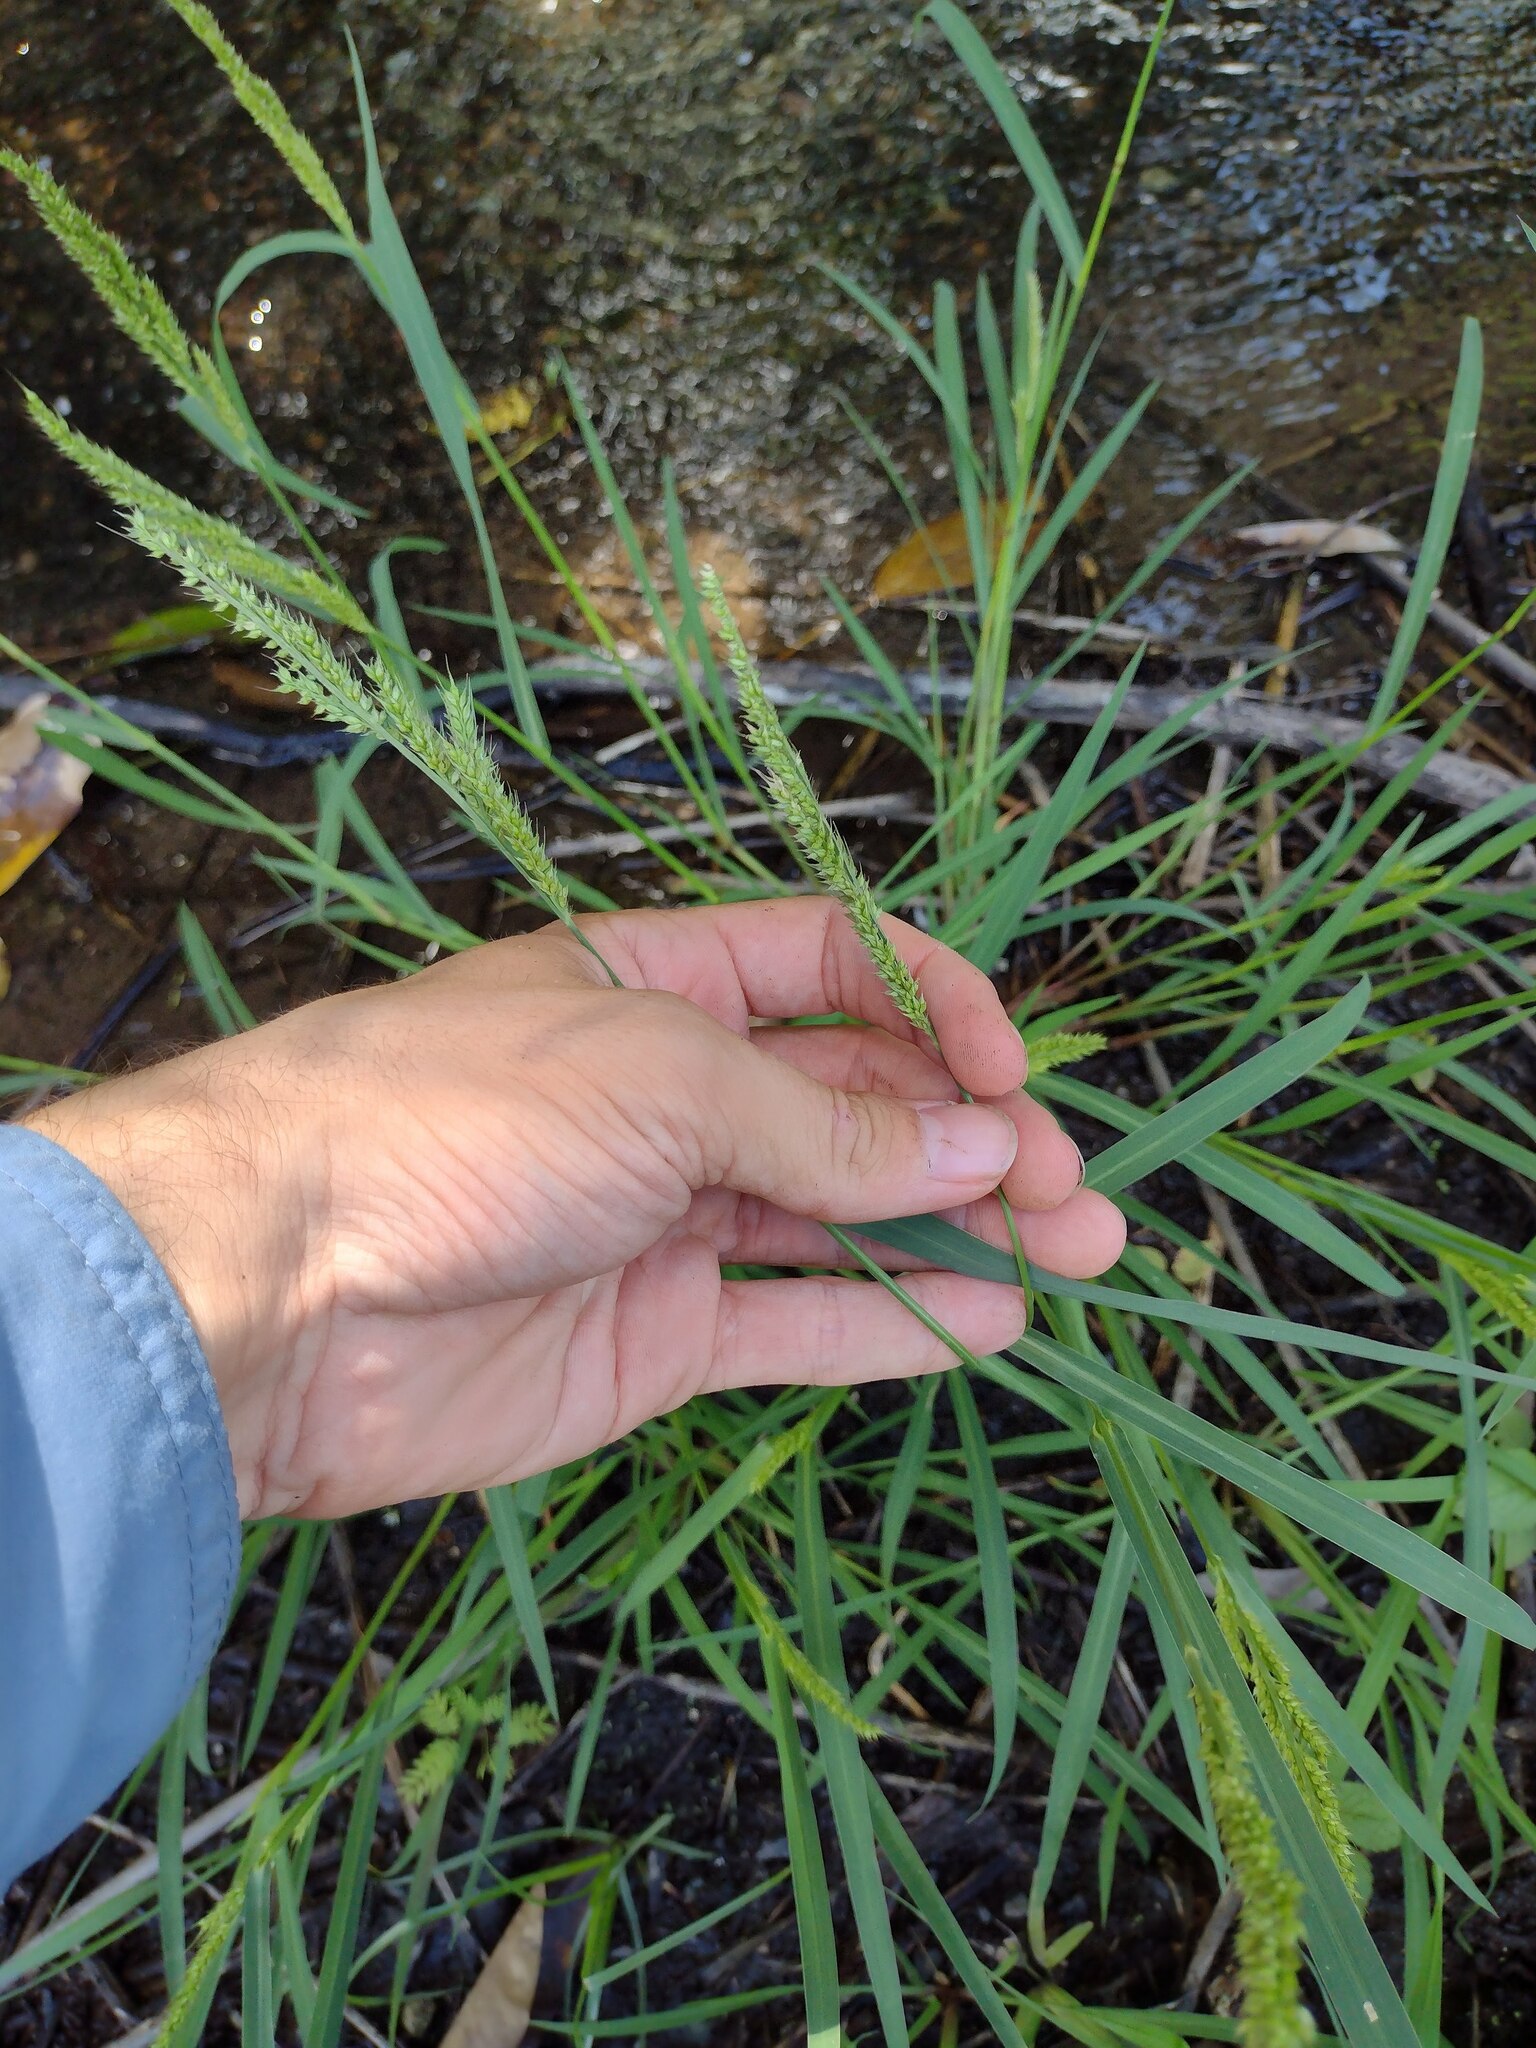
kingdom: Plantae
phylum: Tracheophyta
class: Liliopsida
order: Poales
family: Poaceae
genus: Echinochloa
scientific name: Echinochloa crus-galli
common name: Cockspur
